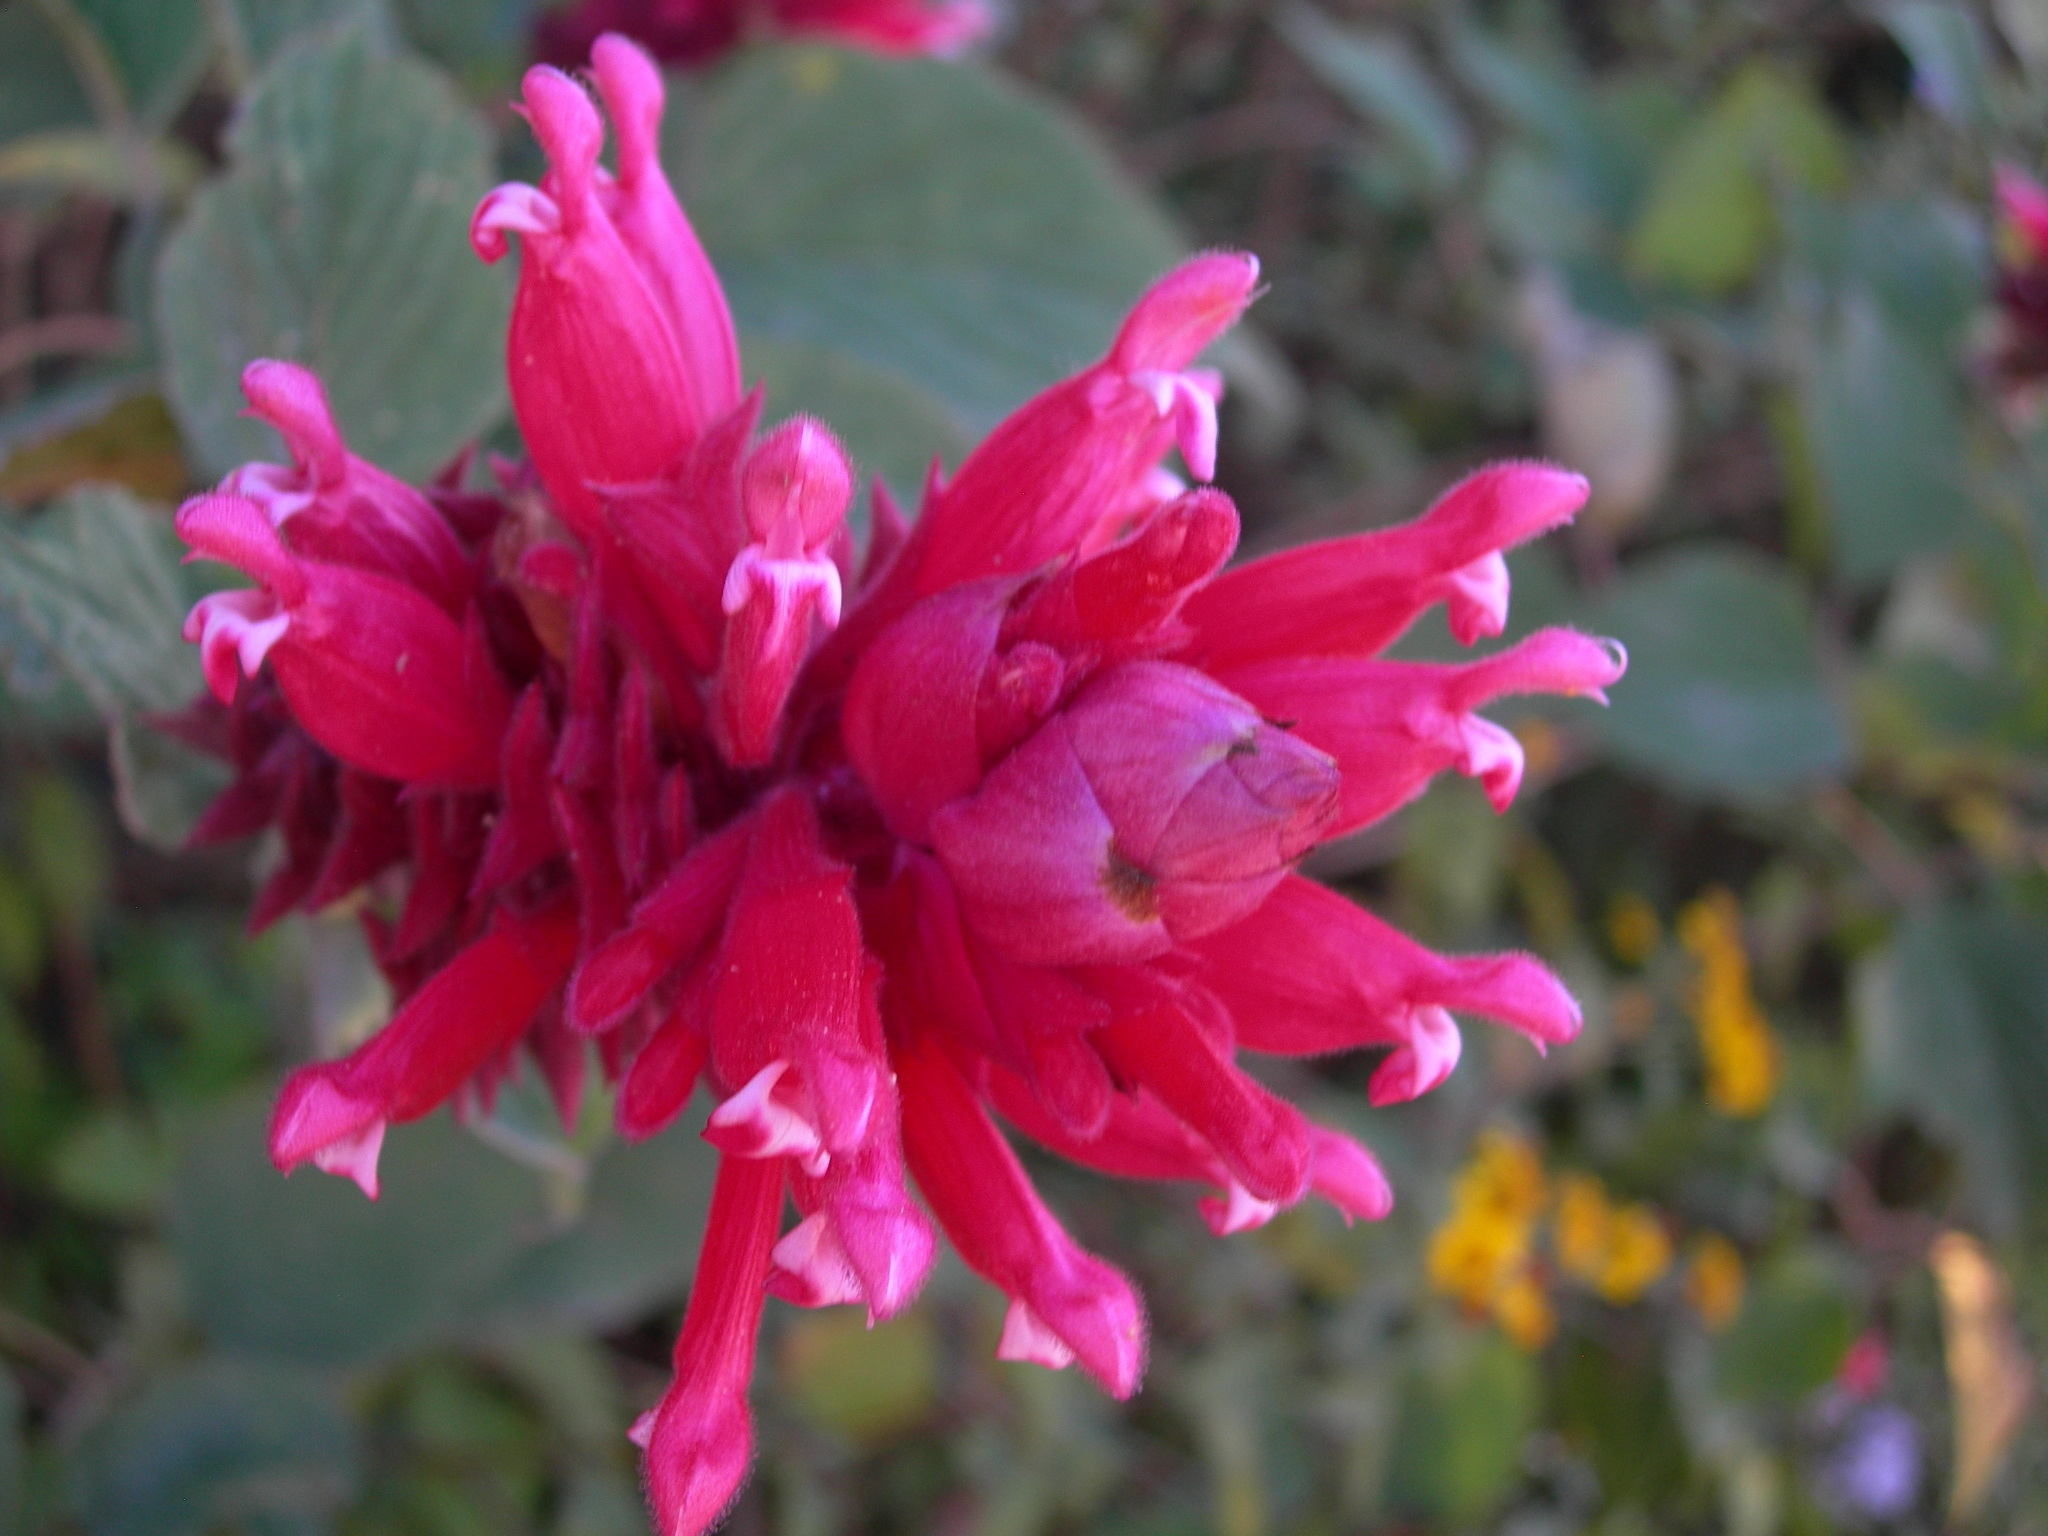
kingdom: Plantae
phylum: Tracheophyta
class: Magnoliopsida
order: Lamiales
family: Lamiaceae
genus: Salvia
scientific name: Salvia wagneriana
